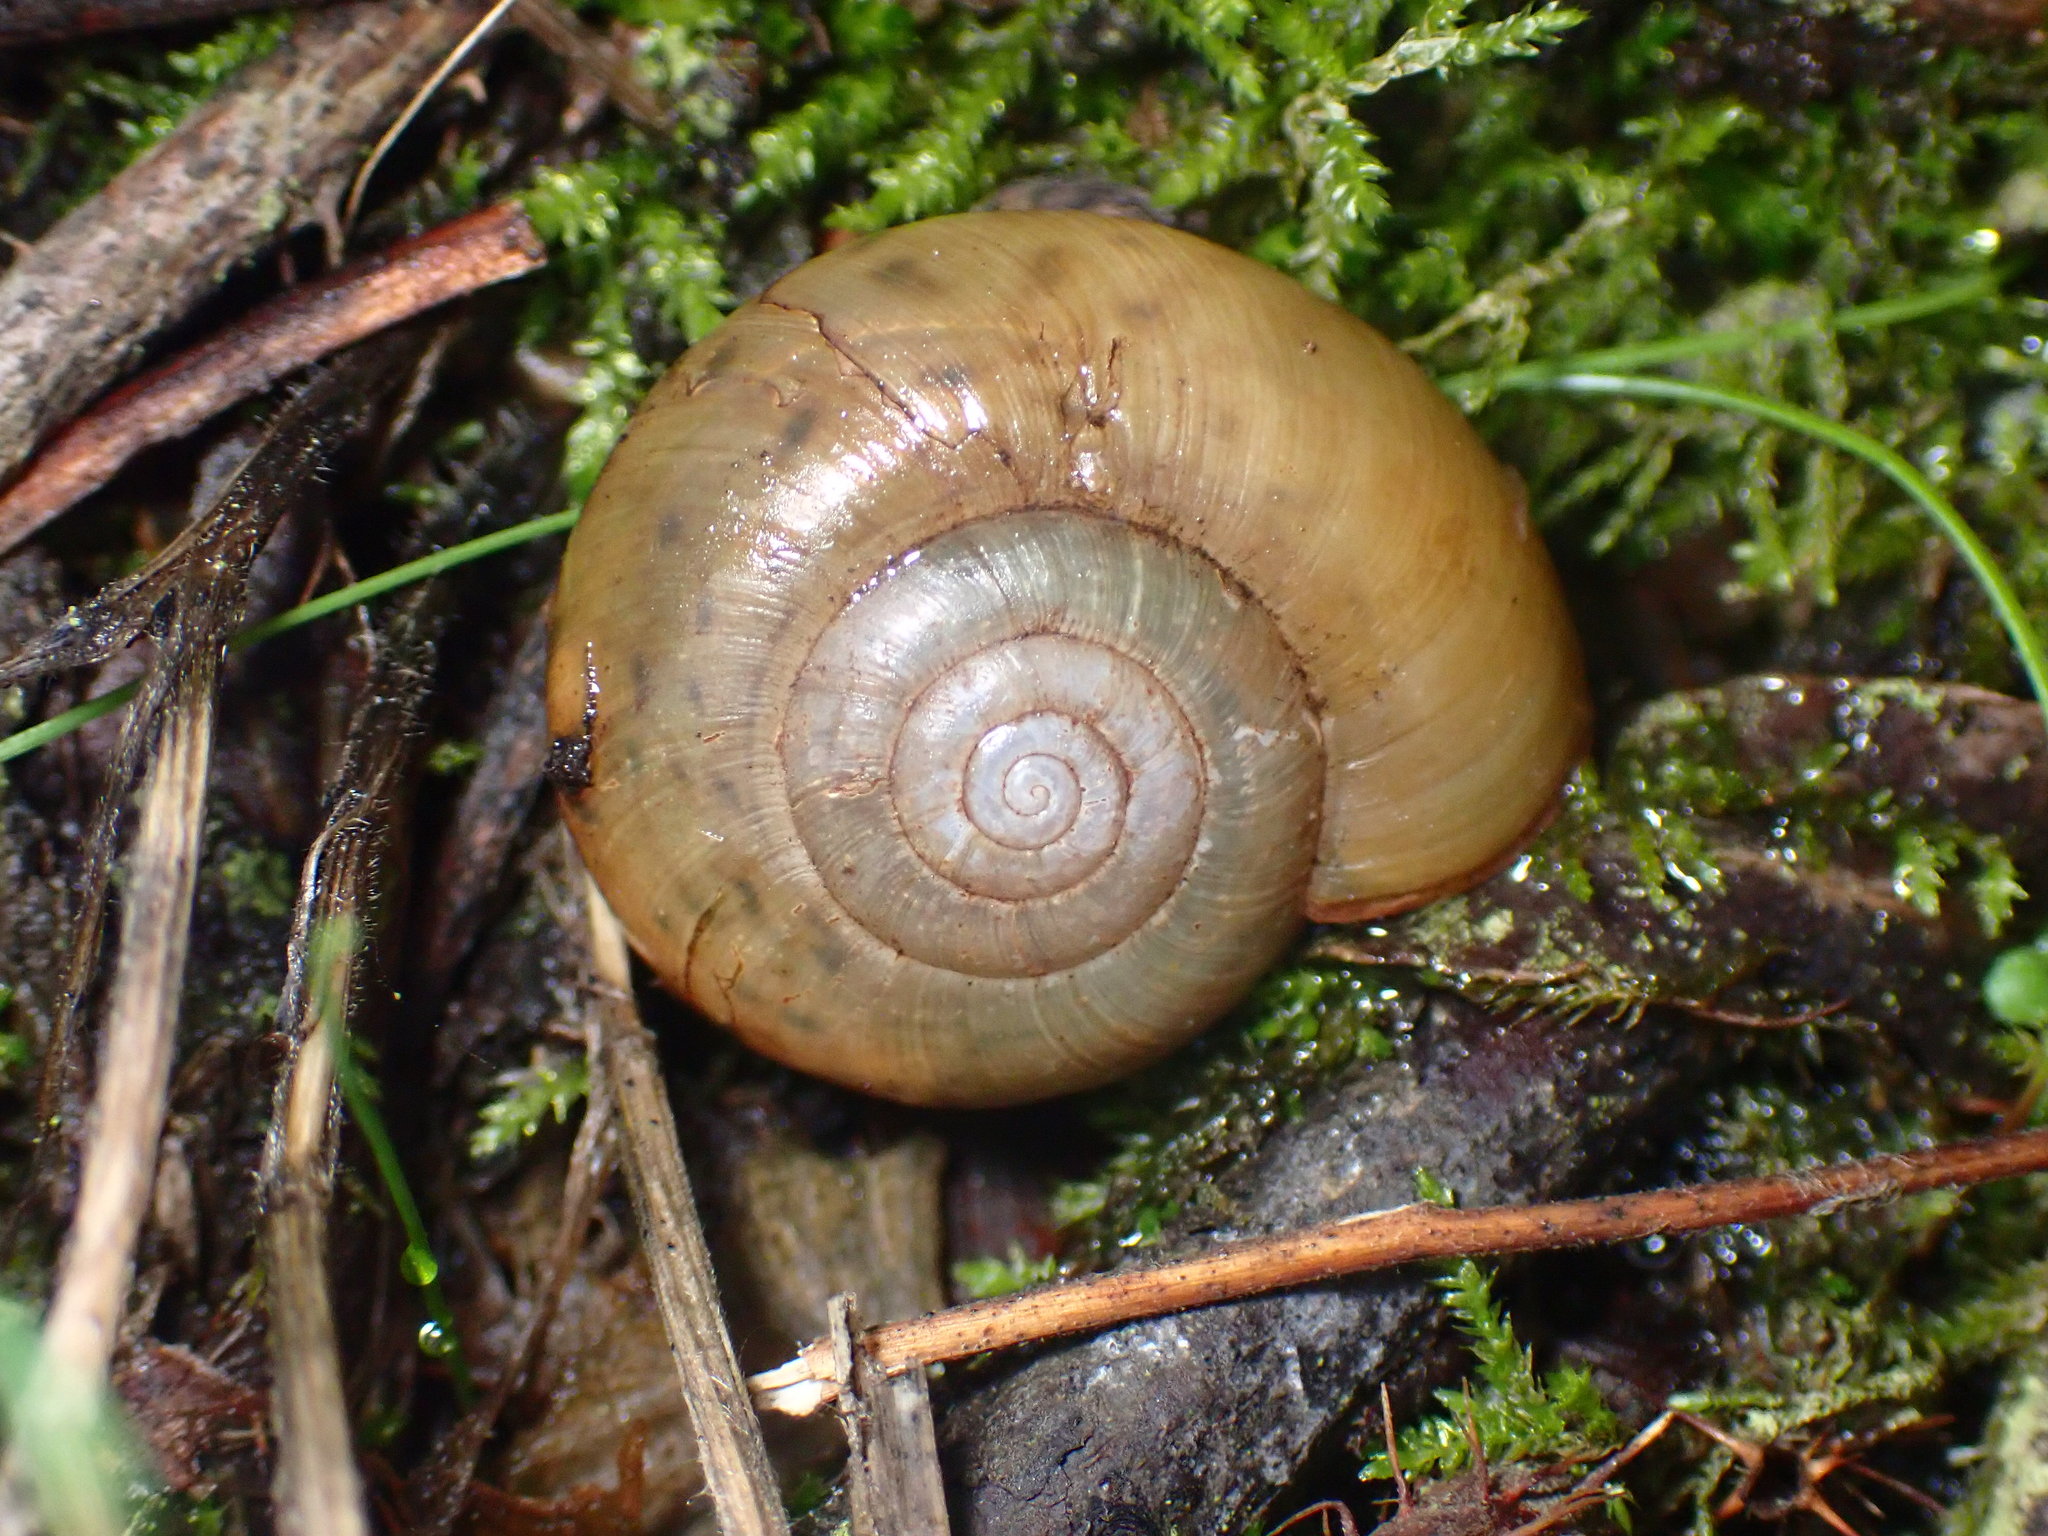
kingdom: Animalia
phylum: Mollusca
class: Gastropoda
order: Stylommatophora
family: Haplotrematidae
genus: Haplotrema
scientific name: Haplotrema minimum
